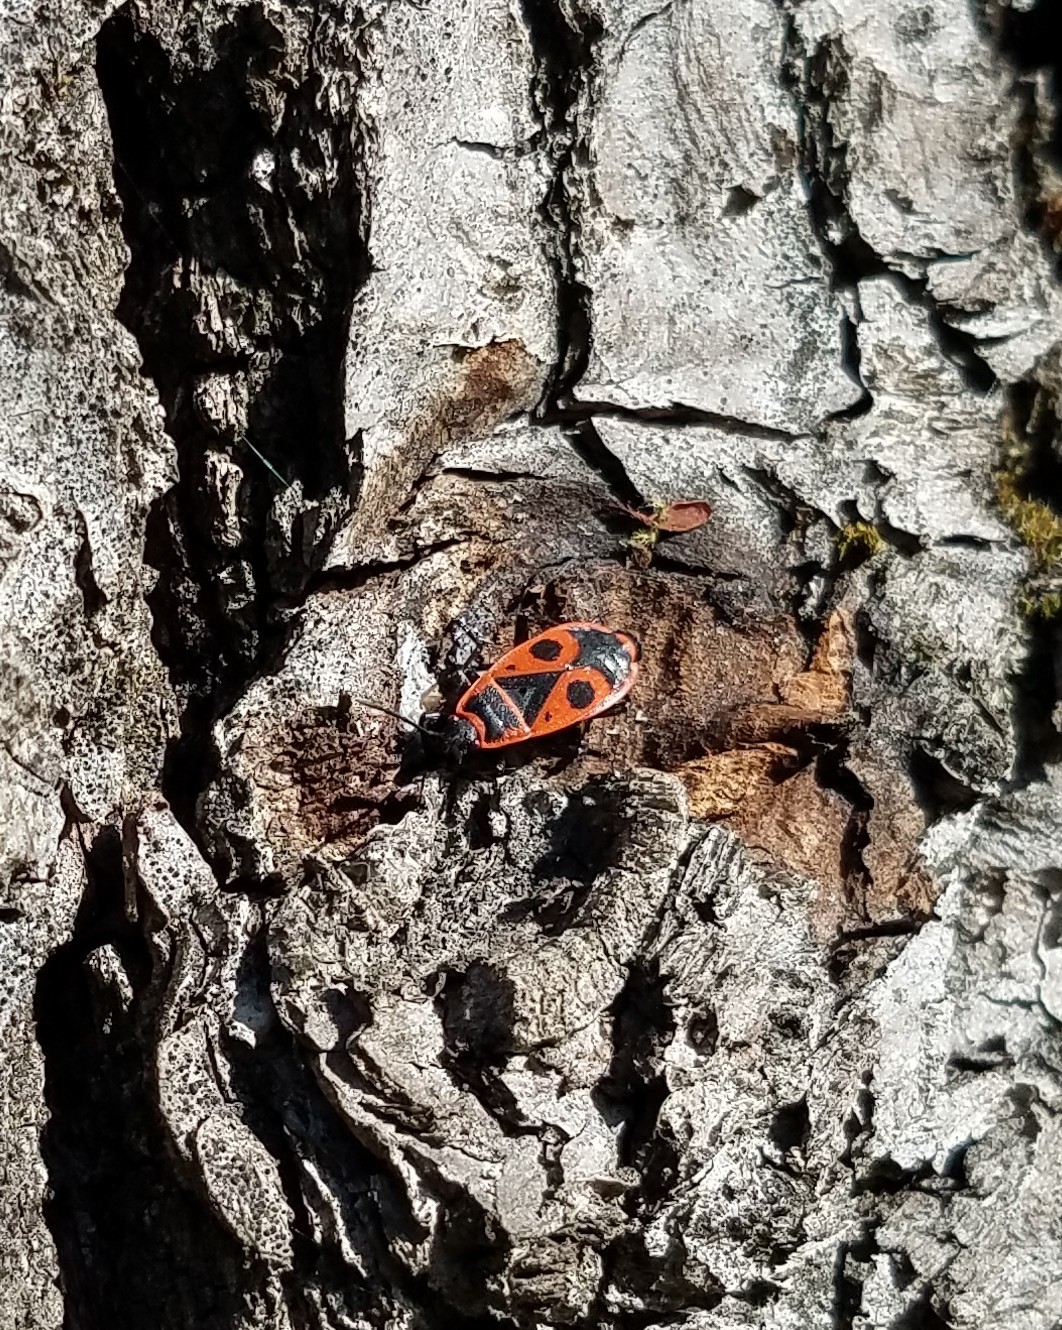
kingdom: Animalia
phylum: Arthropoda
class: Insecta
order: Hemiptera
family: Pyrrhocoridae
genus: Pyrrhocoris
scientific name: Pyrrhocoris apterus
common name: Firebug
